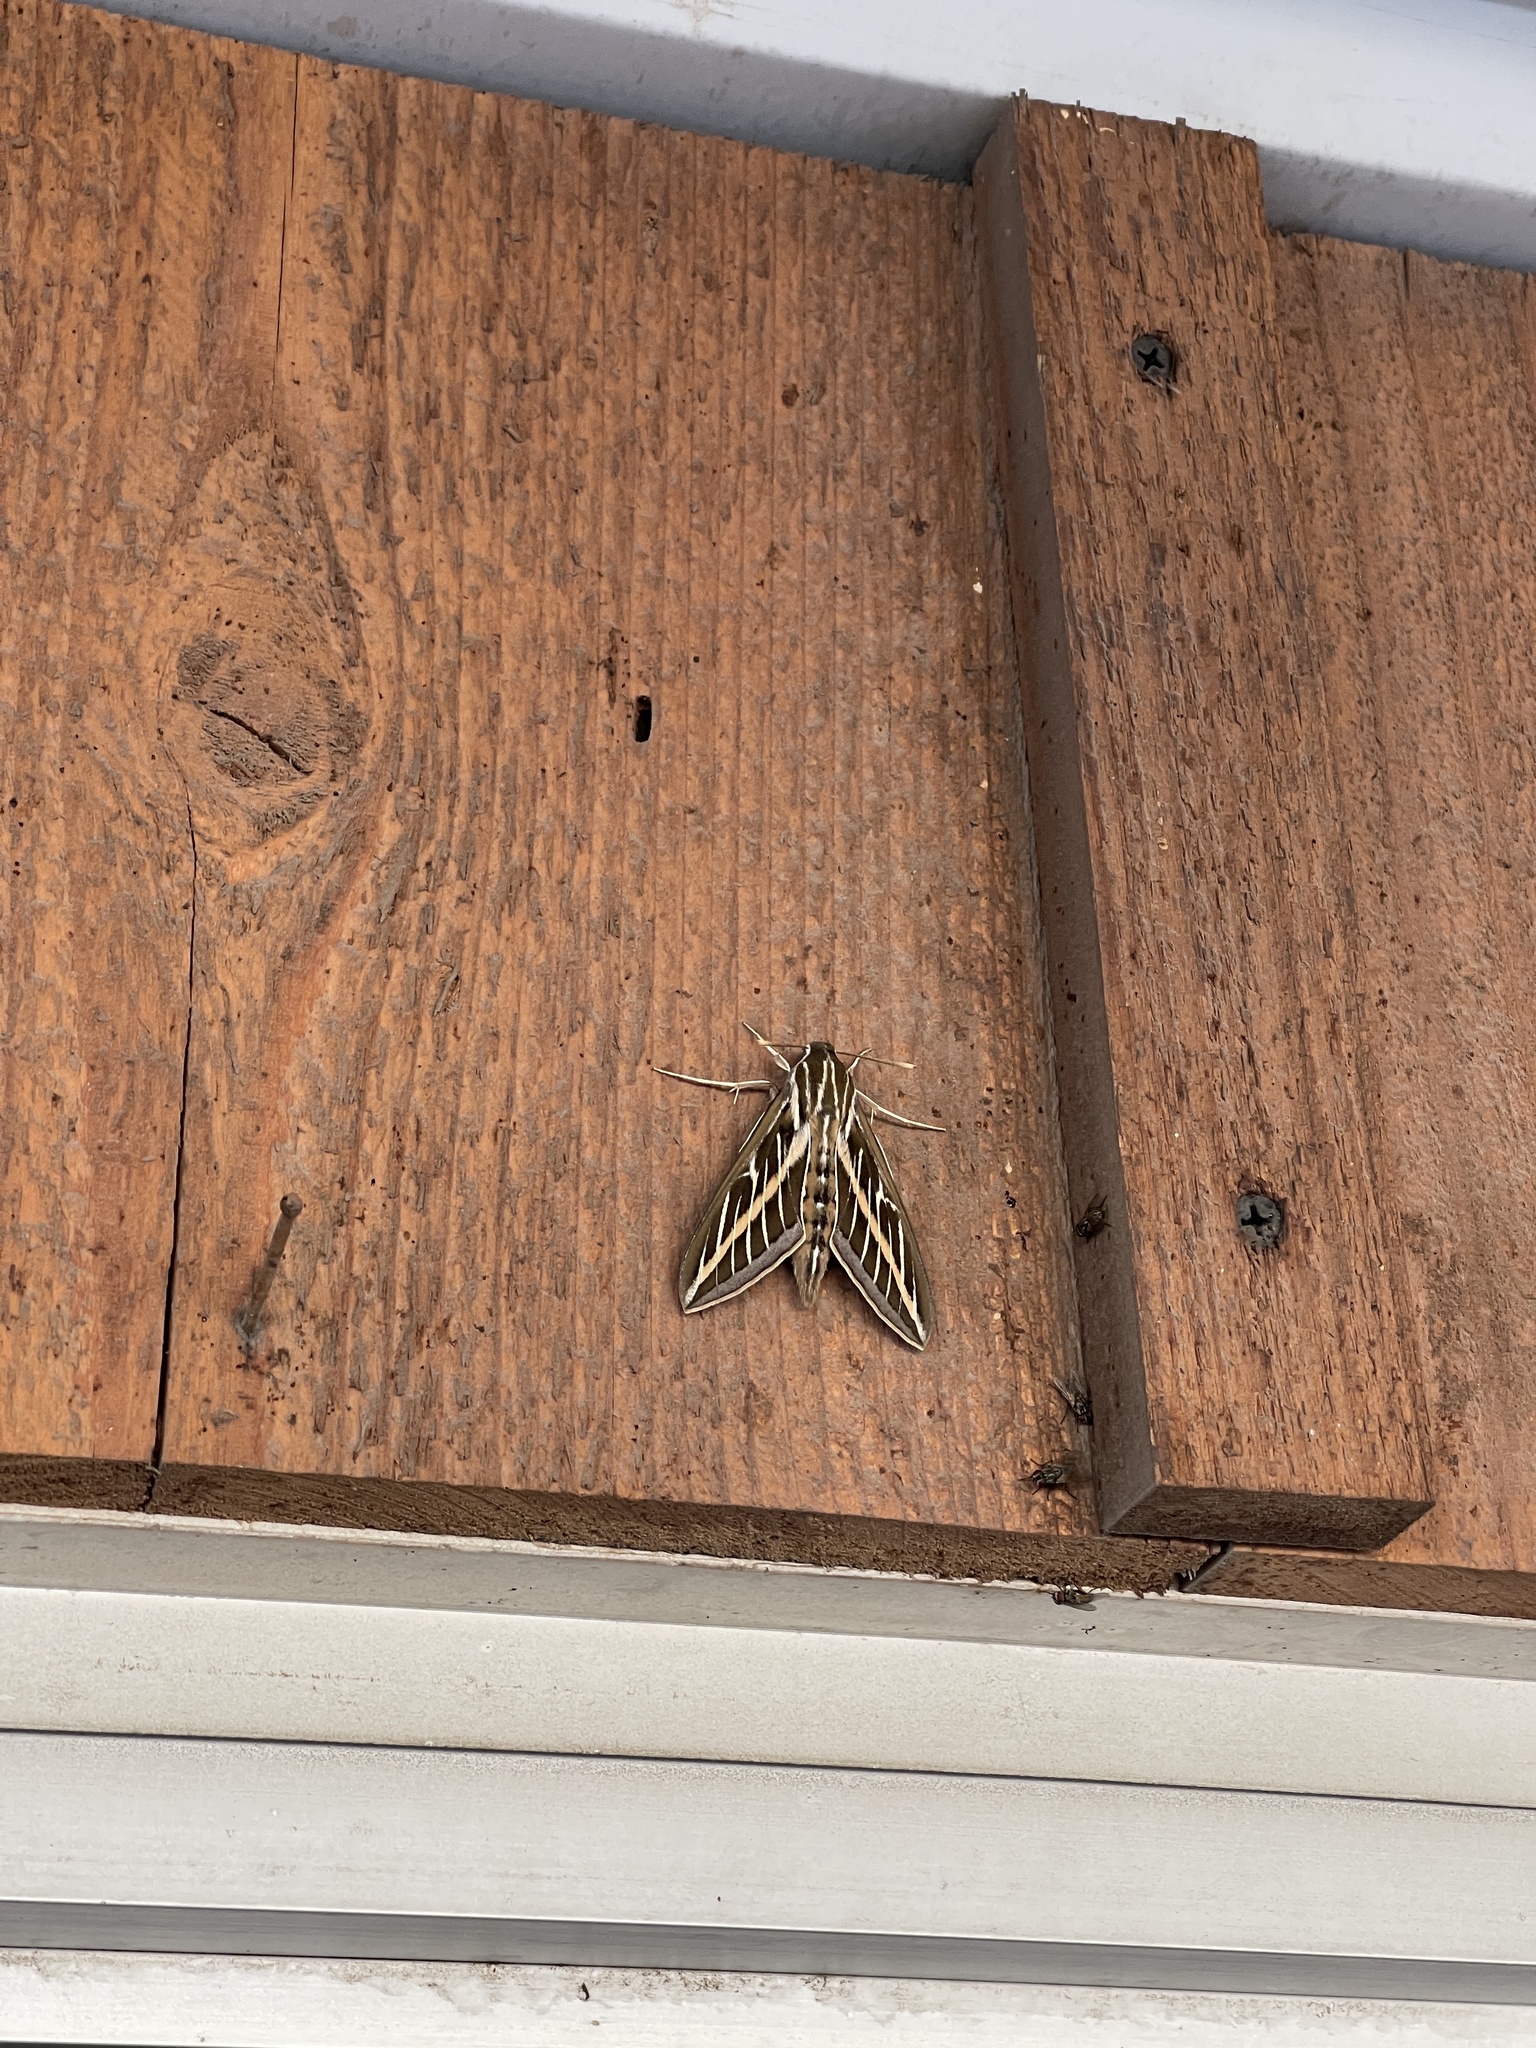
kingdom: Animalia
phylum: Arthropoda
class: Insecta
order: Lepidoptera
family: Sphingidae
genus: Hyles
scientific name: Hyles lineata
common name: White-lined sphinx
